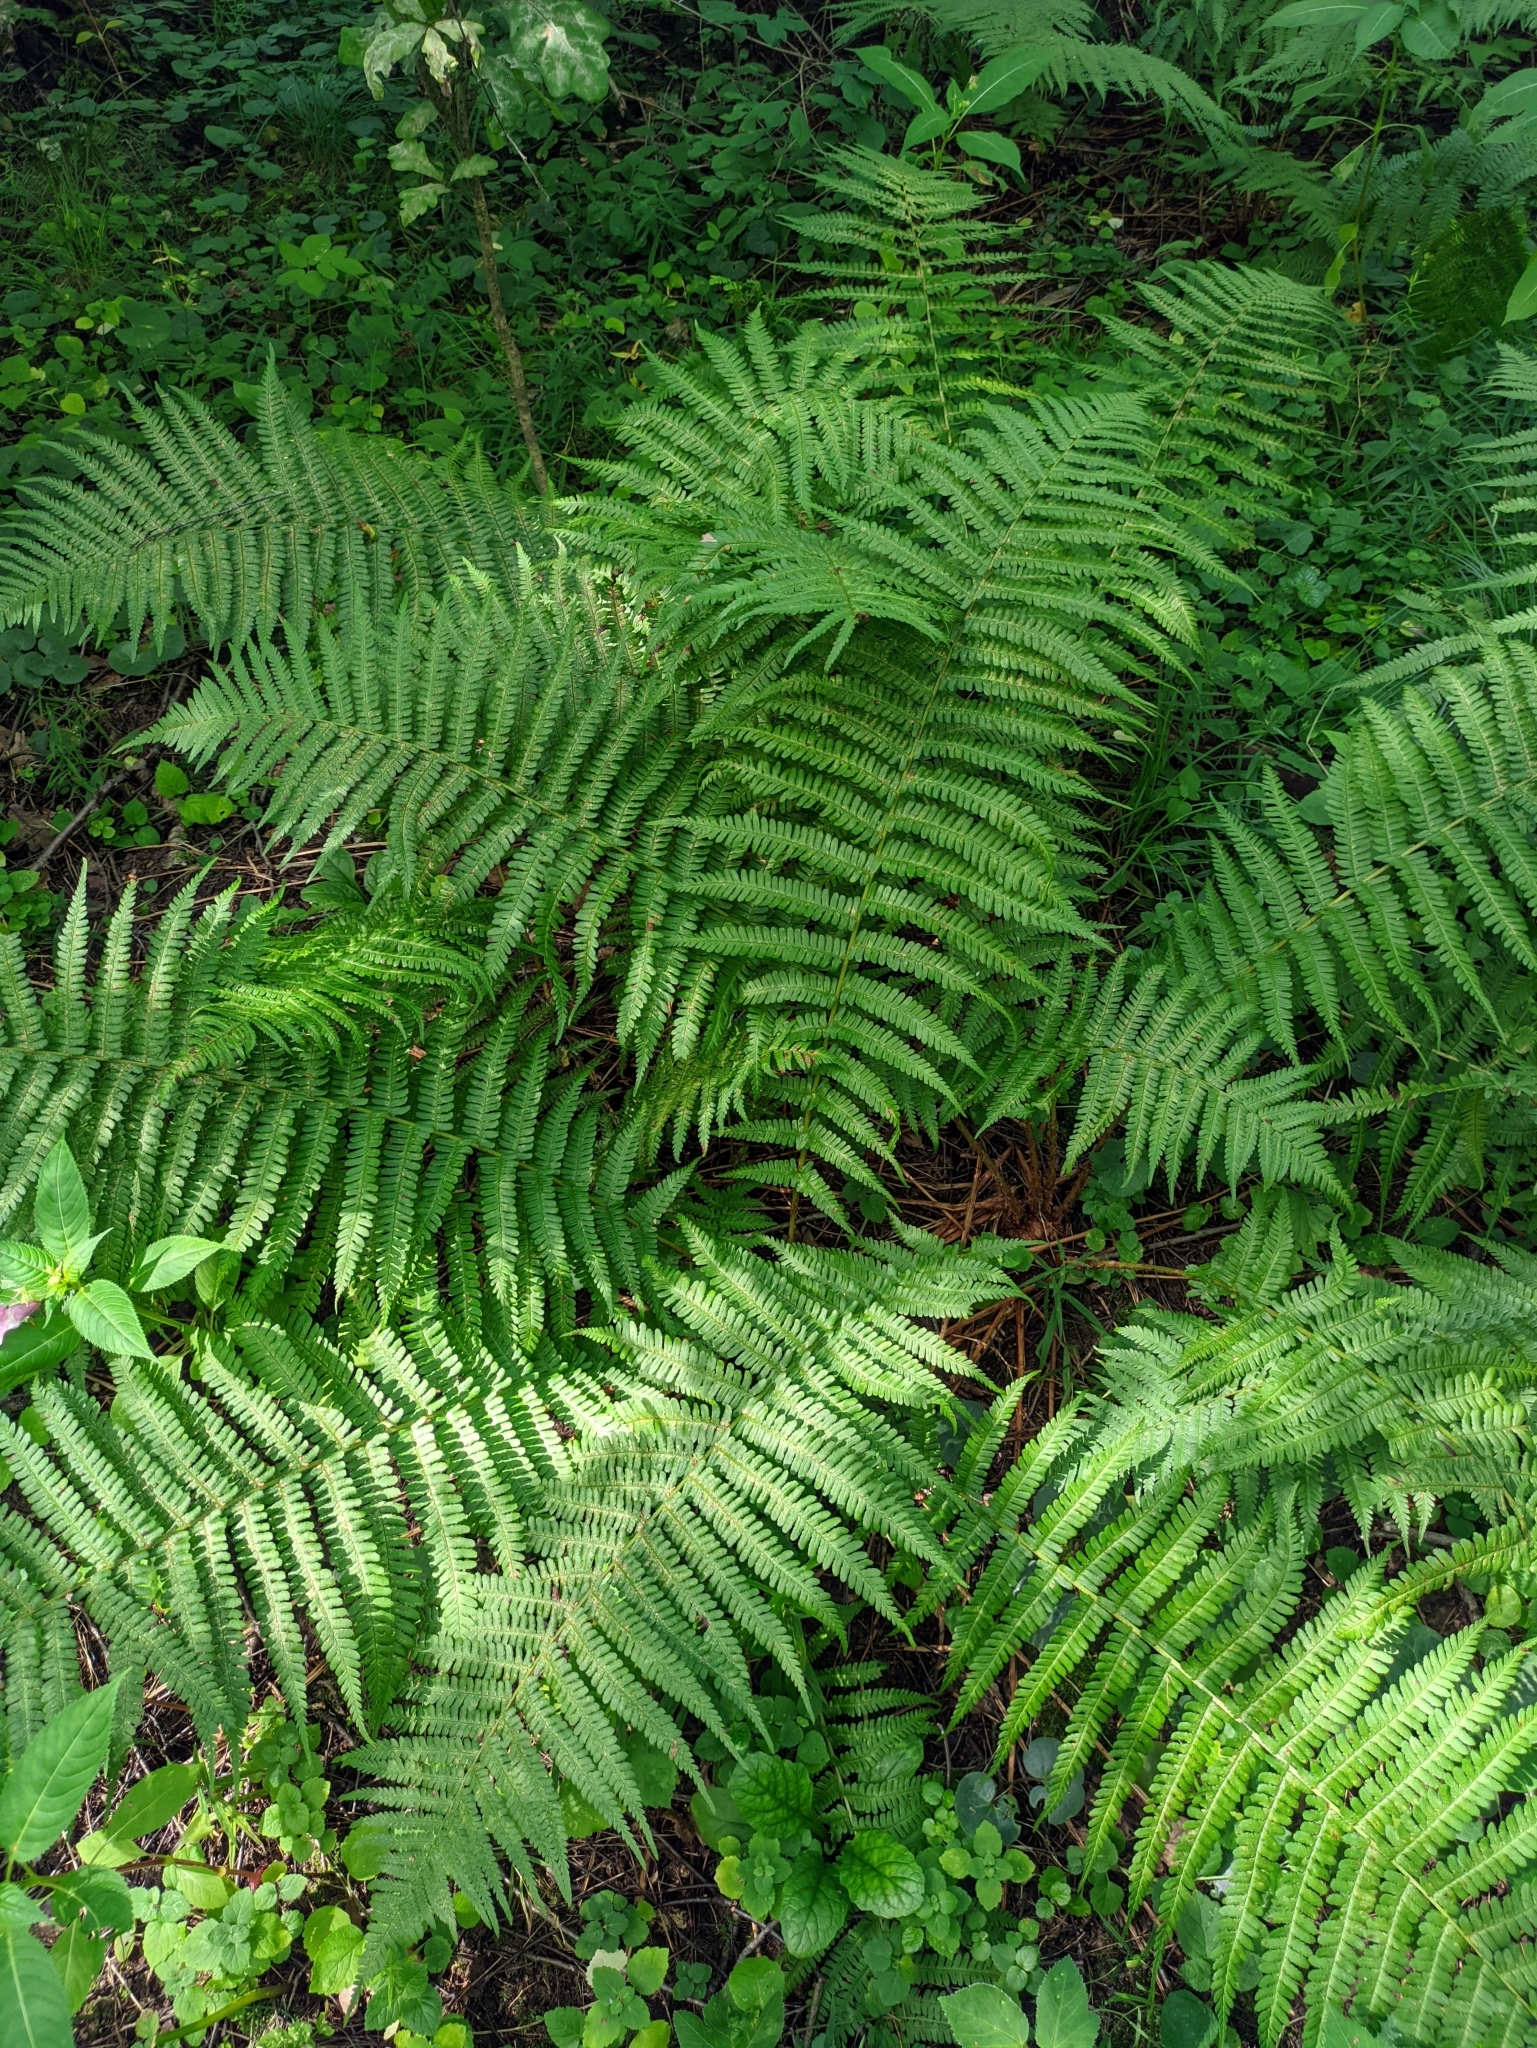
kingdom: Plantae
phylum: Tracheophyta
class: Polypodiopsida
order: Polypodiales
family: Dryopteridaceae
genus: Dryopteris
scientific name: Dryopteris filix-mas
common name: Male fern
